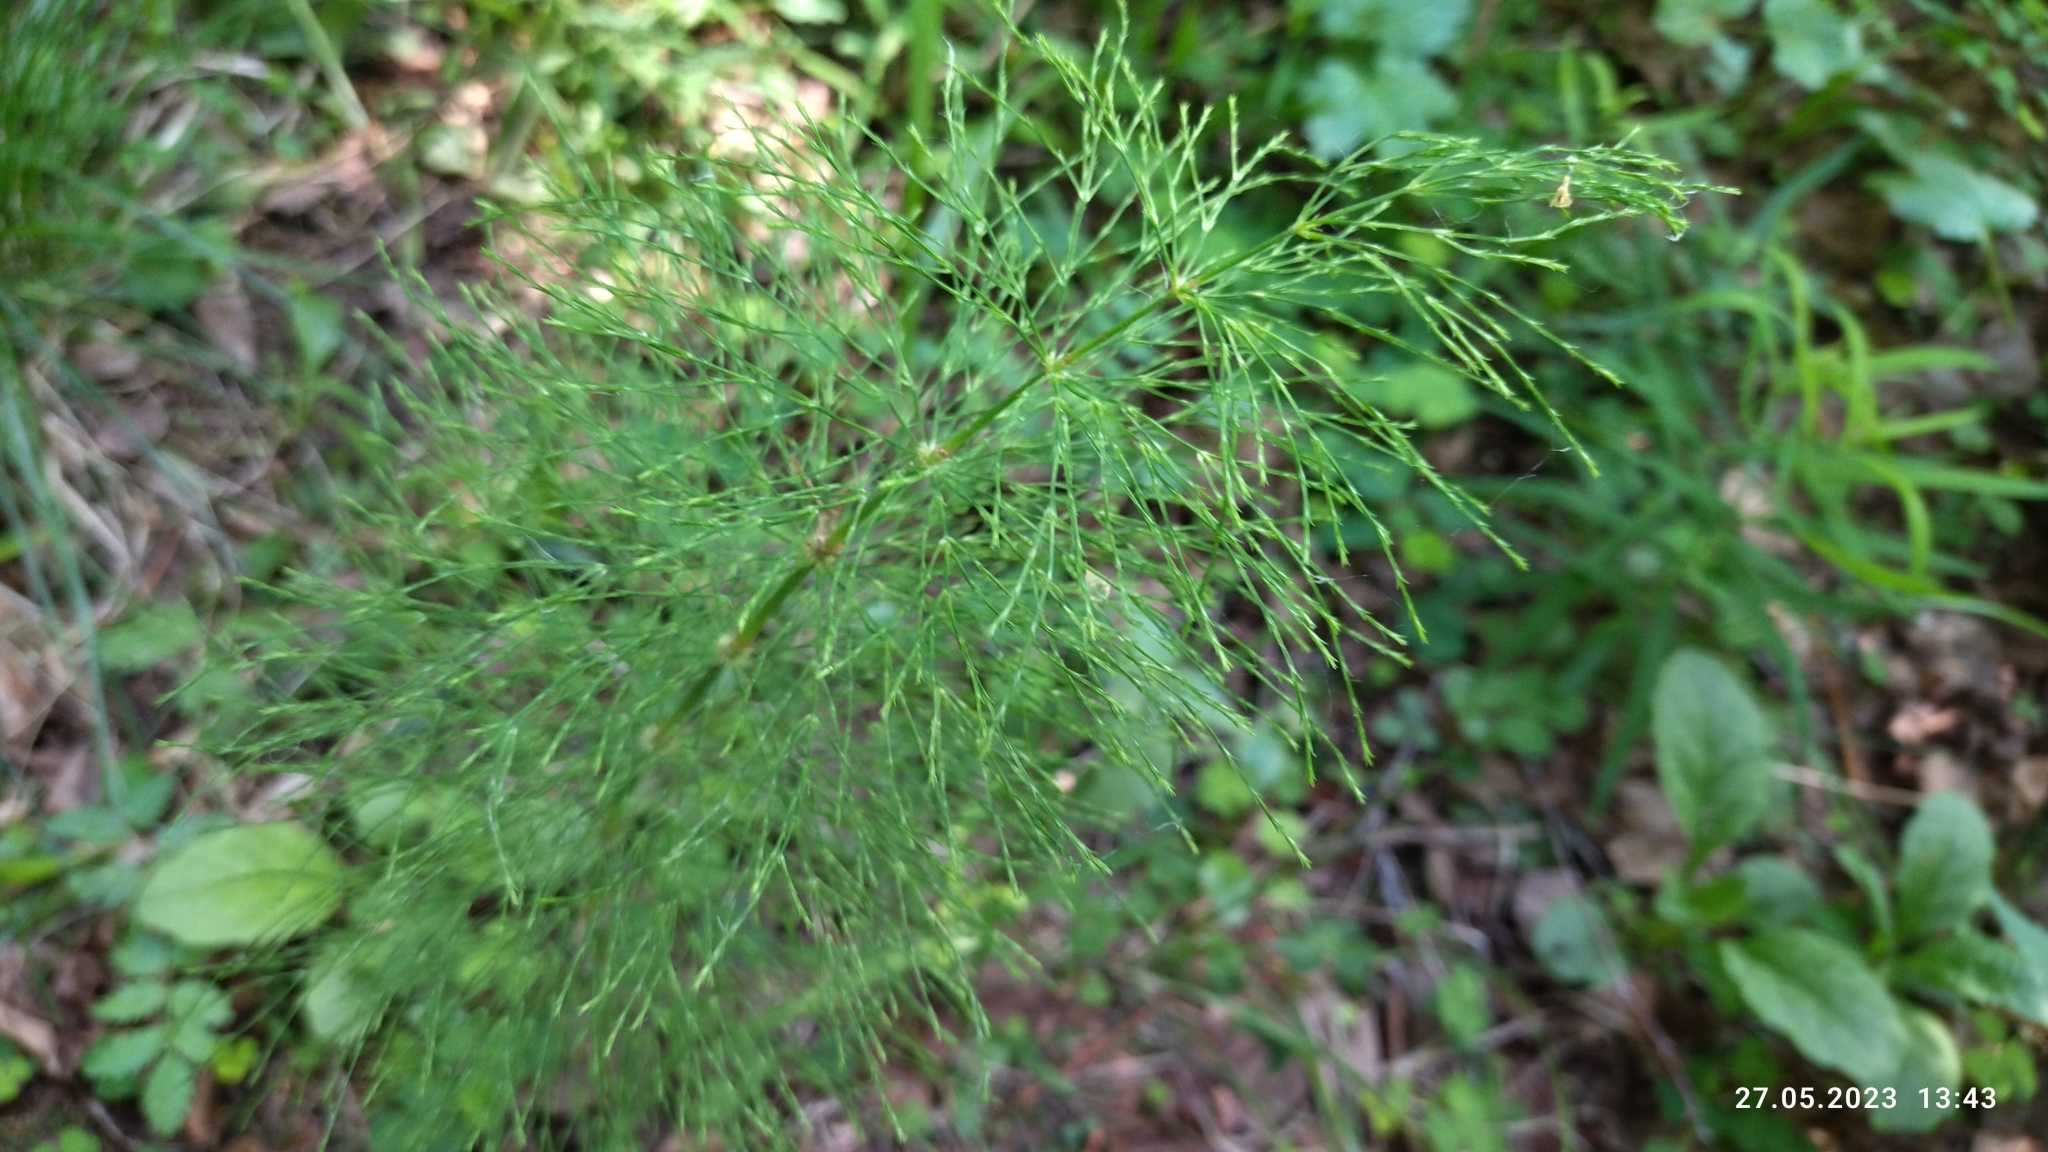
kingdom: Plantae
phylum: Tracheophyta
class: Polypodiopsida
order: Equisetales
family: Equisetaceae
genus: Equisetum
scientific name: Equisetum sylvaticum
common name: Wood horsetail
